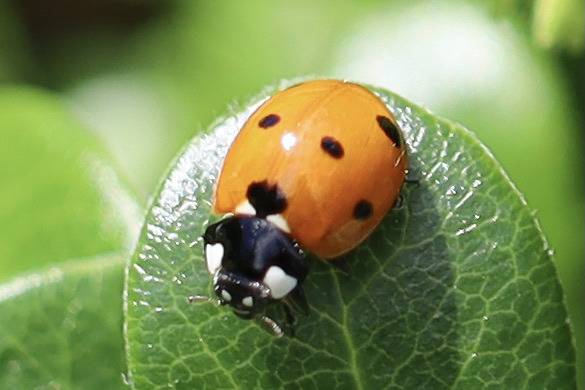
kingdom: Animalia
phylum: Arthropoda
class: Insecta
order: Coleoptera
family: Coccinellidae
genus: Coccinella
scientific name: Coccinella septempunctata
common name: Sevenspotted lady beetle
